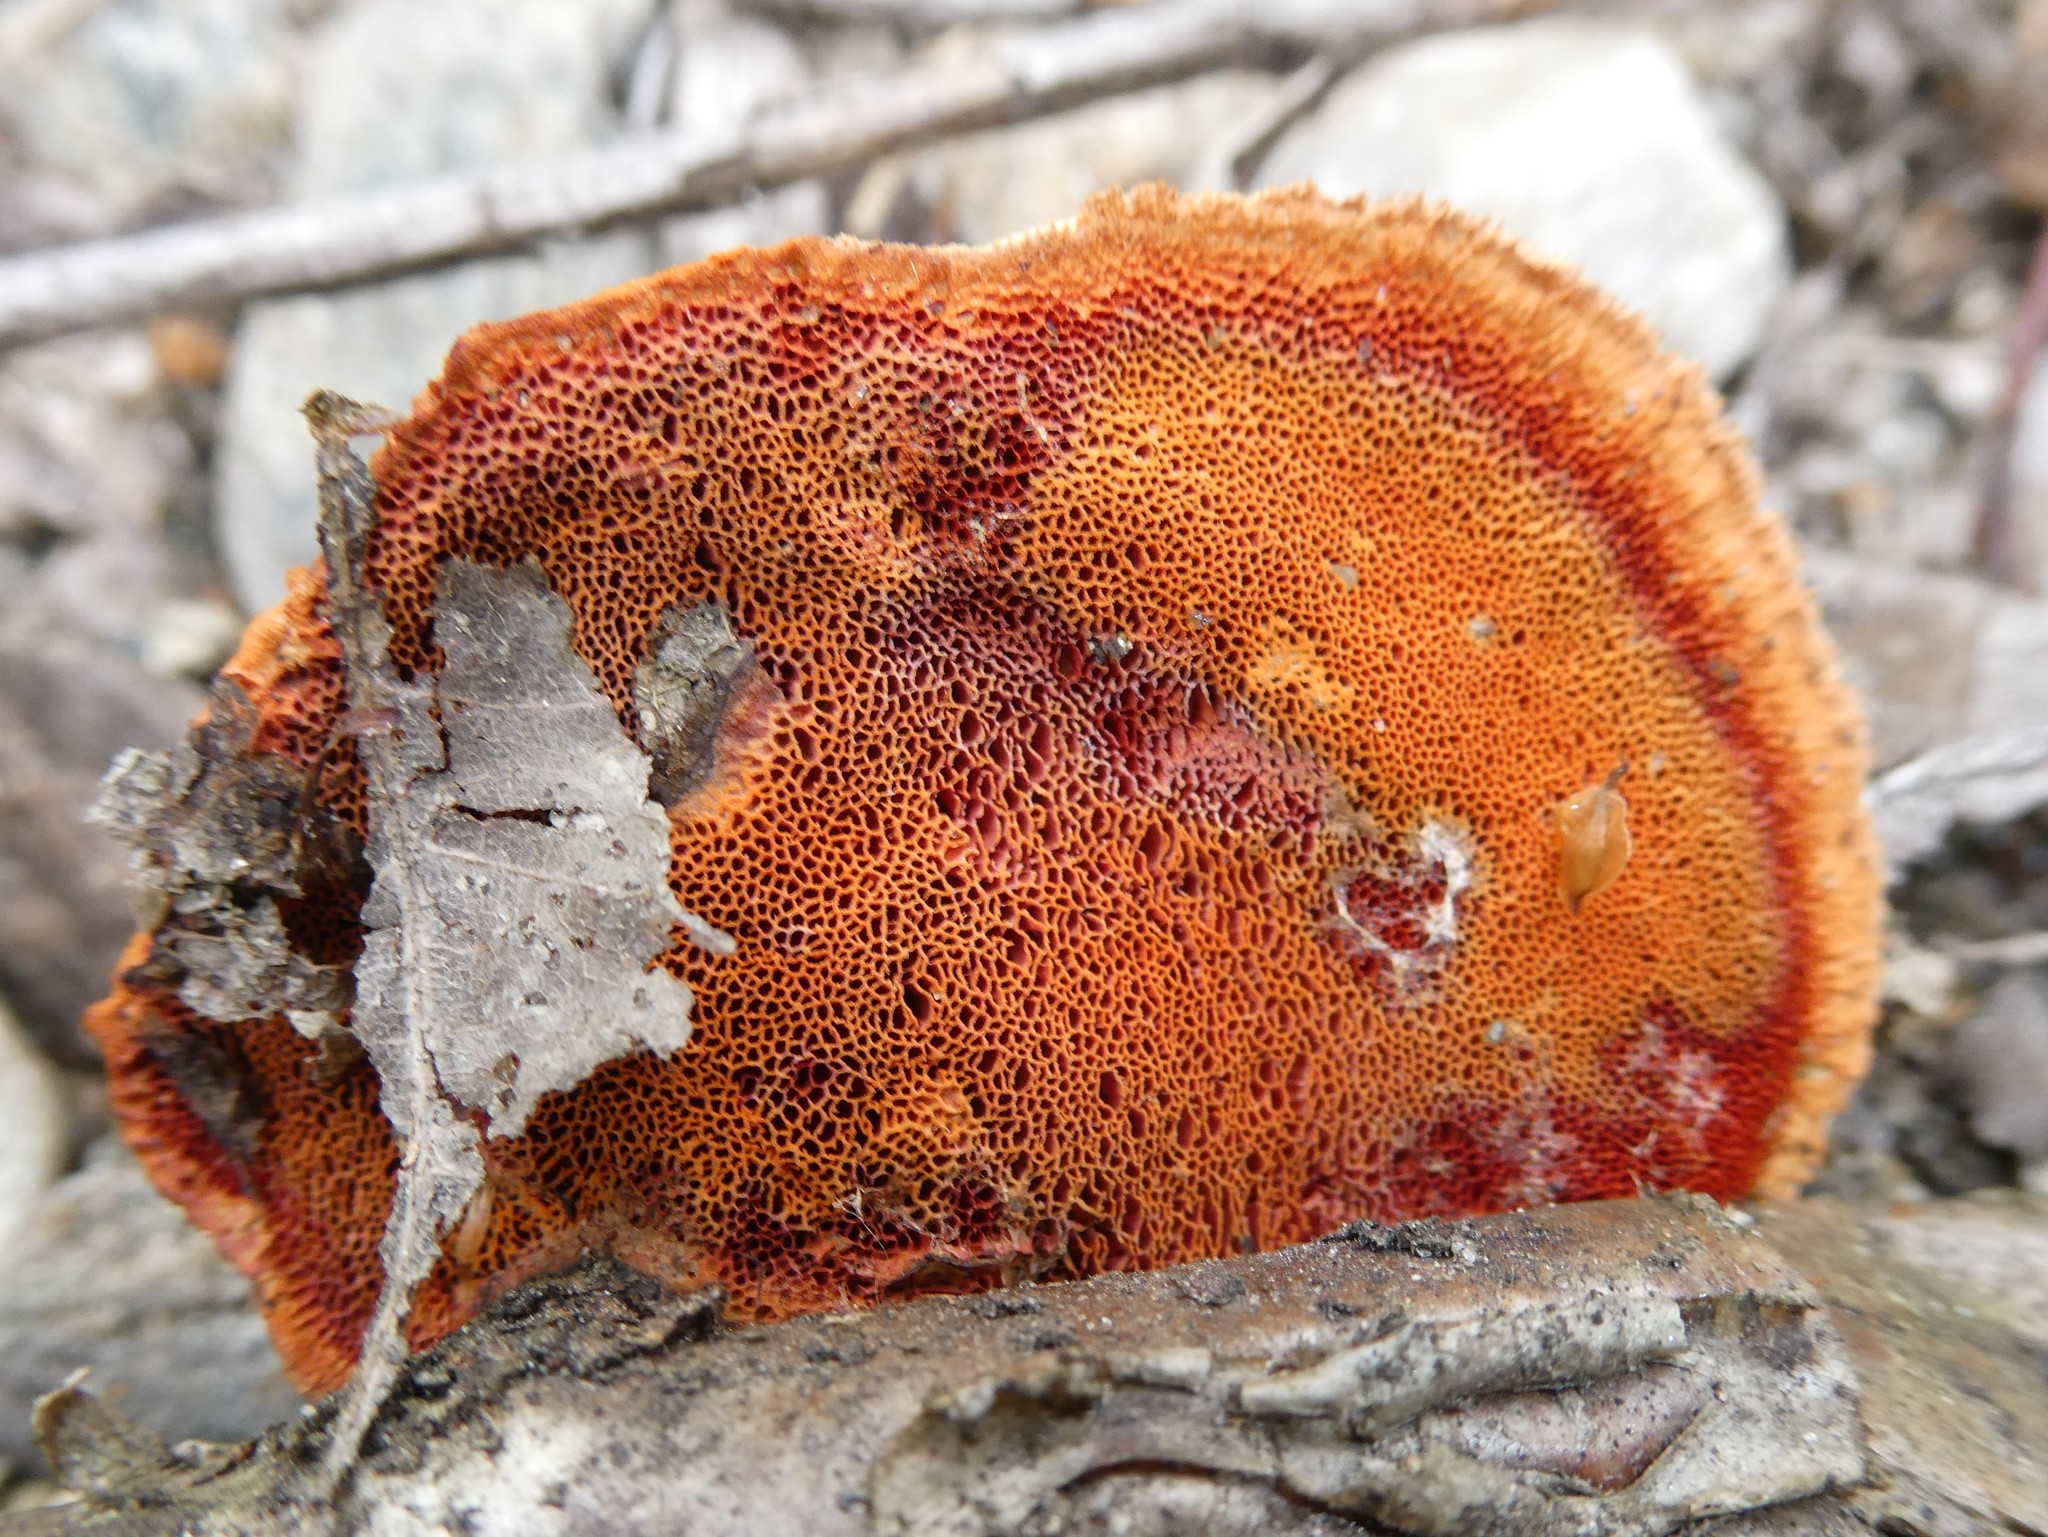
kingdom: Fungi
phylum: Basidiomycota
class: Agaricomycetes
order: Polyporales
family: Polyporaceae
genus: Trametes
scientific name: Trametes cinnabarina
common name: Northern cinnabar polypore
